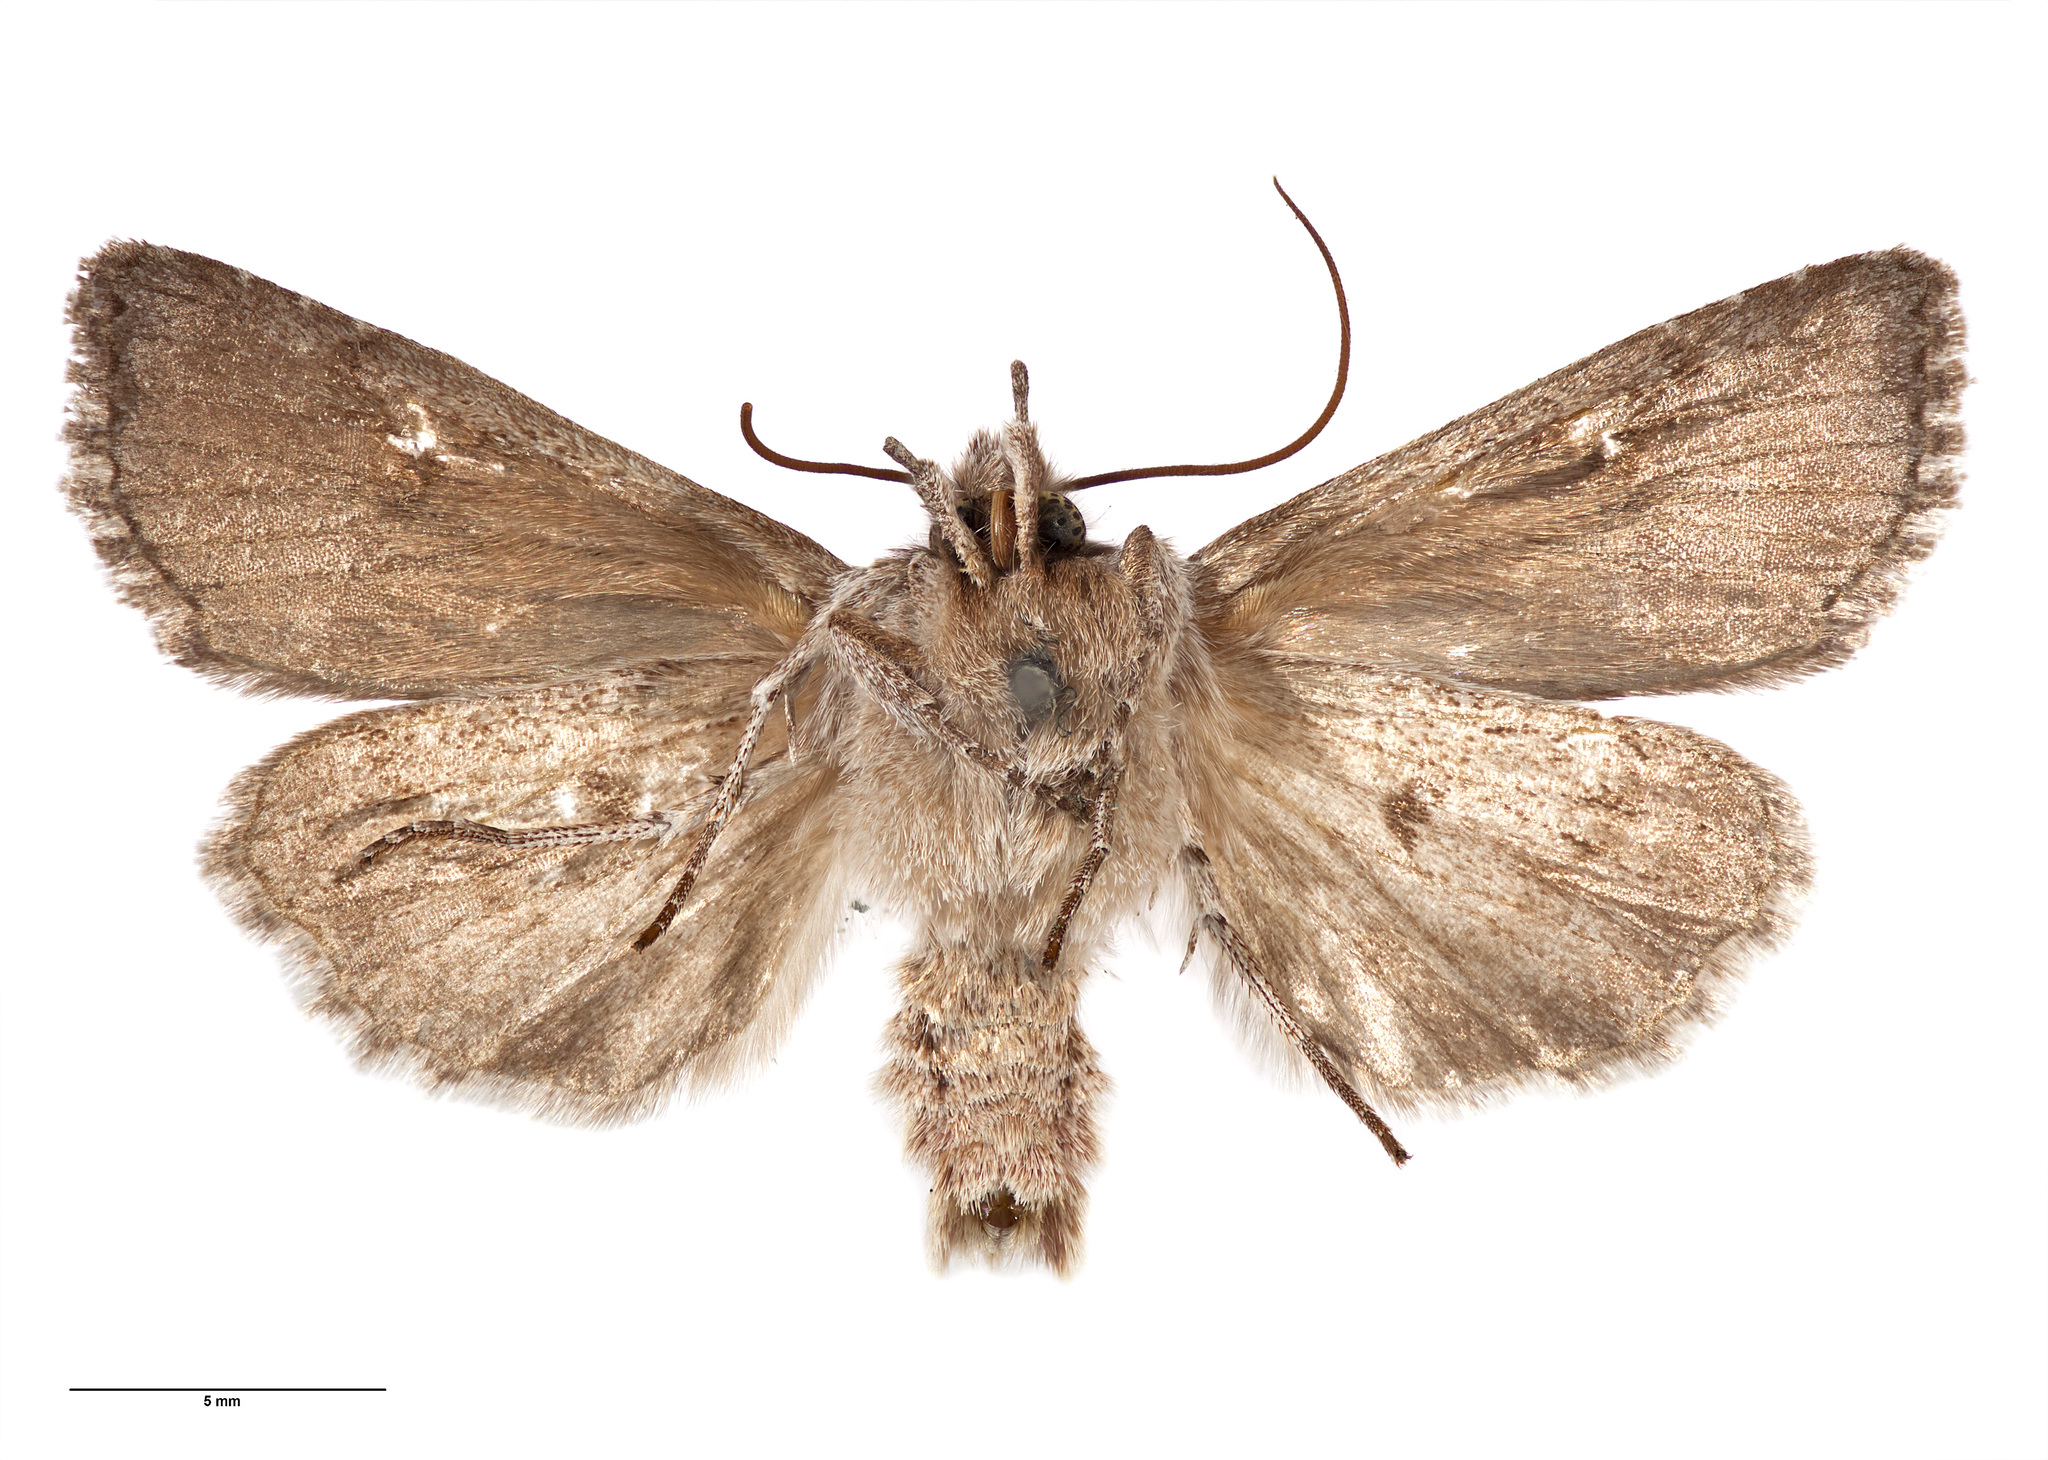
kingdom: Animalia
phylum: Arthropoda
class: Insecta
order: Lepidoptera
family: Noctuidae
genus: Physetica
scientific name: Physetica longstaffii
